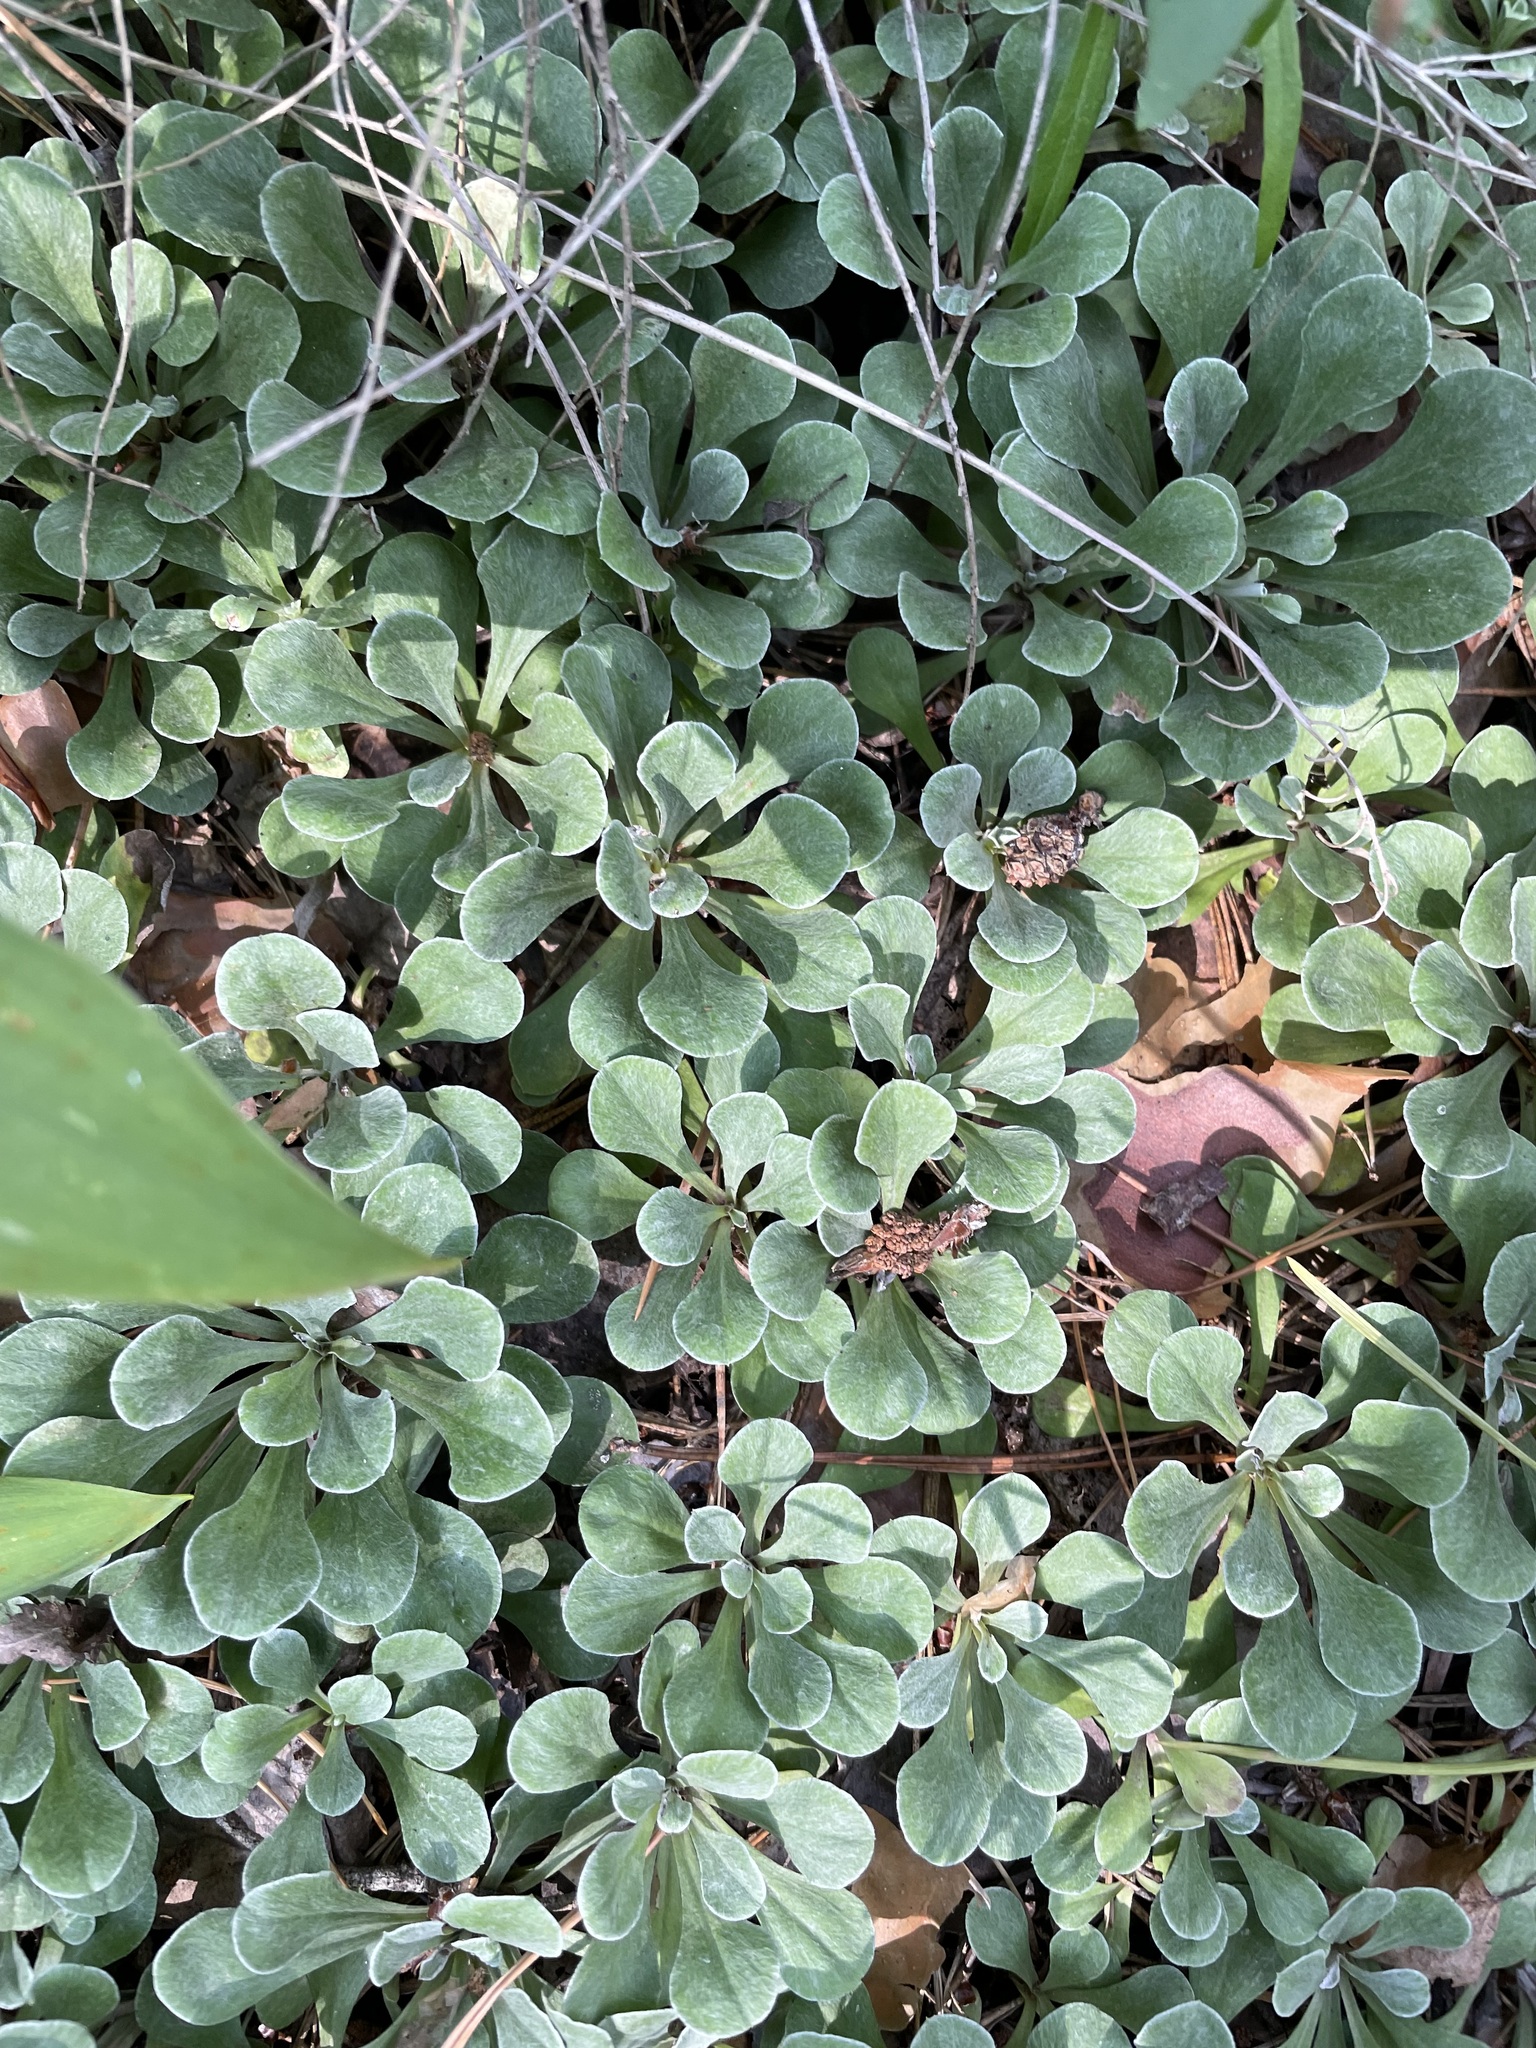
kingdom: Plantae
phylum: Tracheophyta
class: Magnoliopsida
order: Asterales
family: Asteraceae
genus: Antennaria
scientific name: Antennaria dioica
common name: Mountain everlasting
